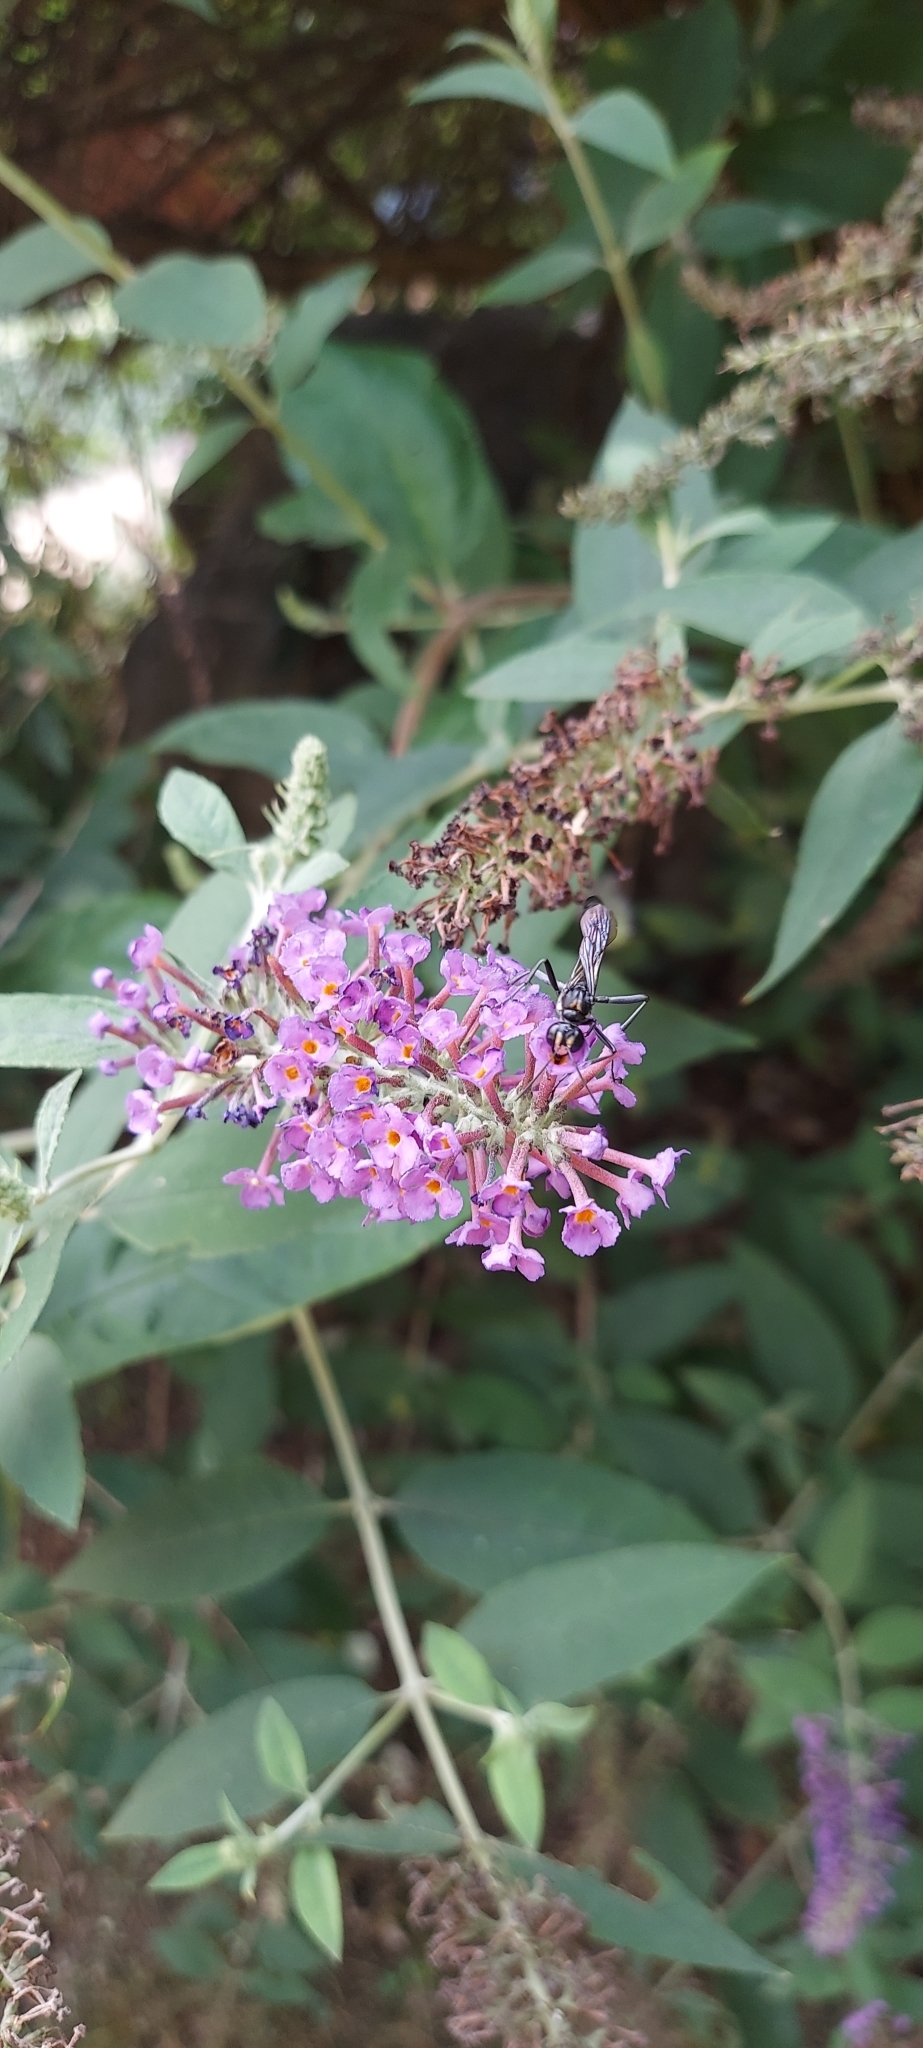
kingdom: Plantae
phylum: Tracheophyta
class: Magnoliopsida
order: Lamiales
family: Scrophulariaceae
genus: Buddleja
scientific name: Buddleja davidii
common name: Butterfly-bush
